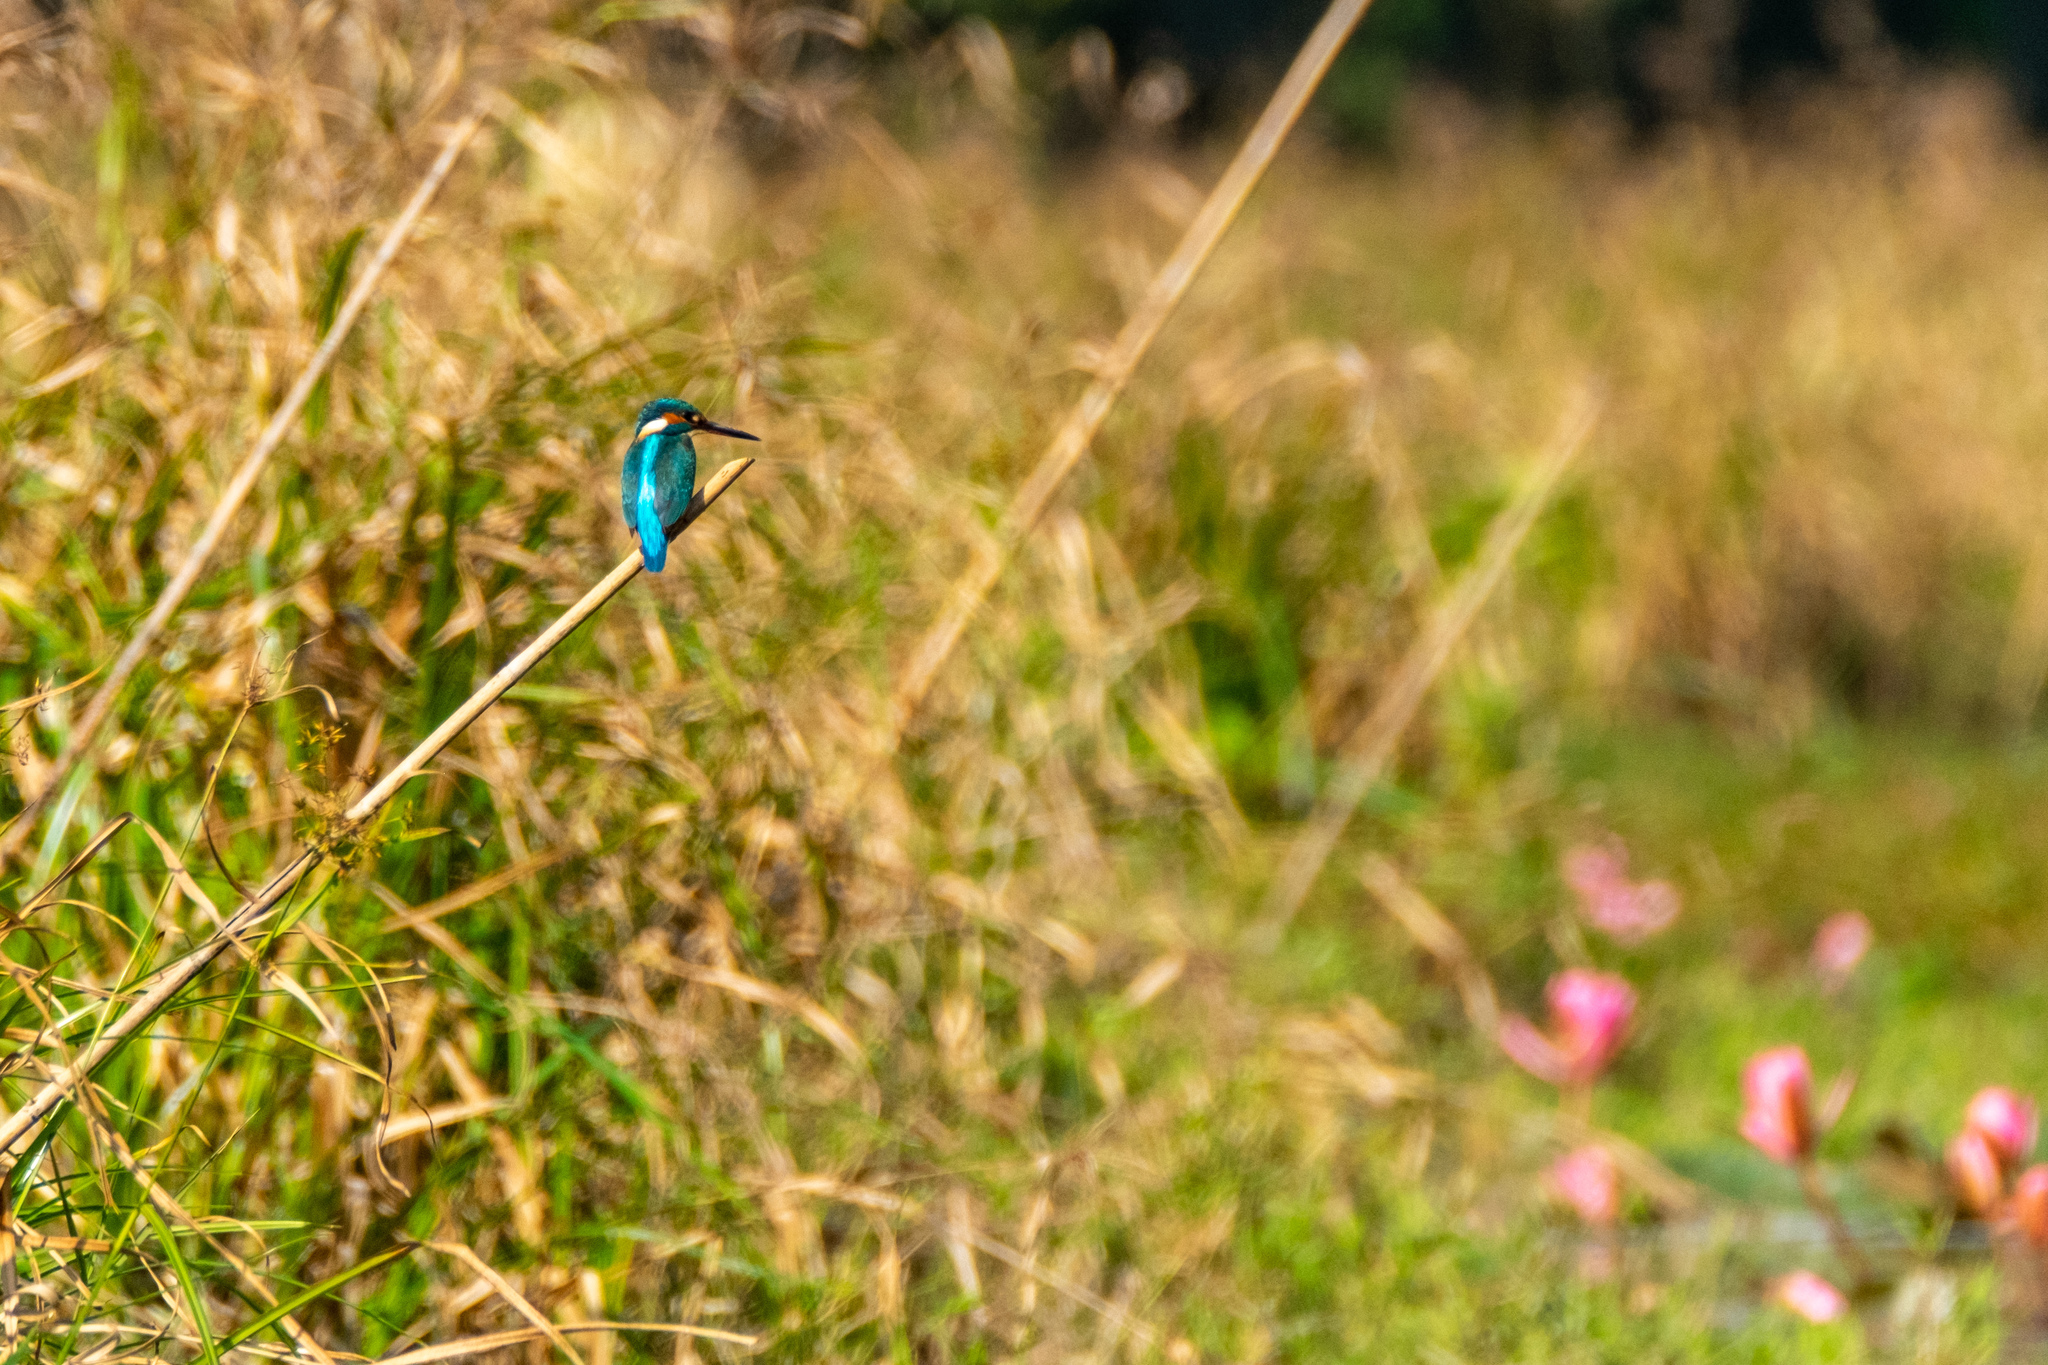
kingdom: Animalia
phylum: Chordata
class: Aves
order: Coraciiformes
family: Alcedinidae
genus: Alcedo
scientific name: Alcedo atthis
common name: Common kingfisher
